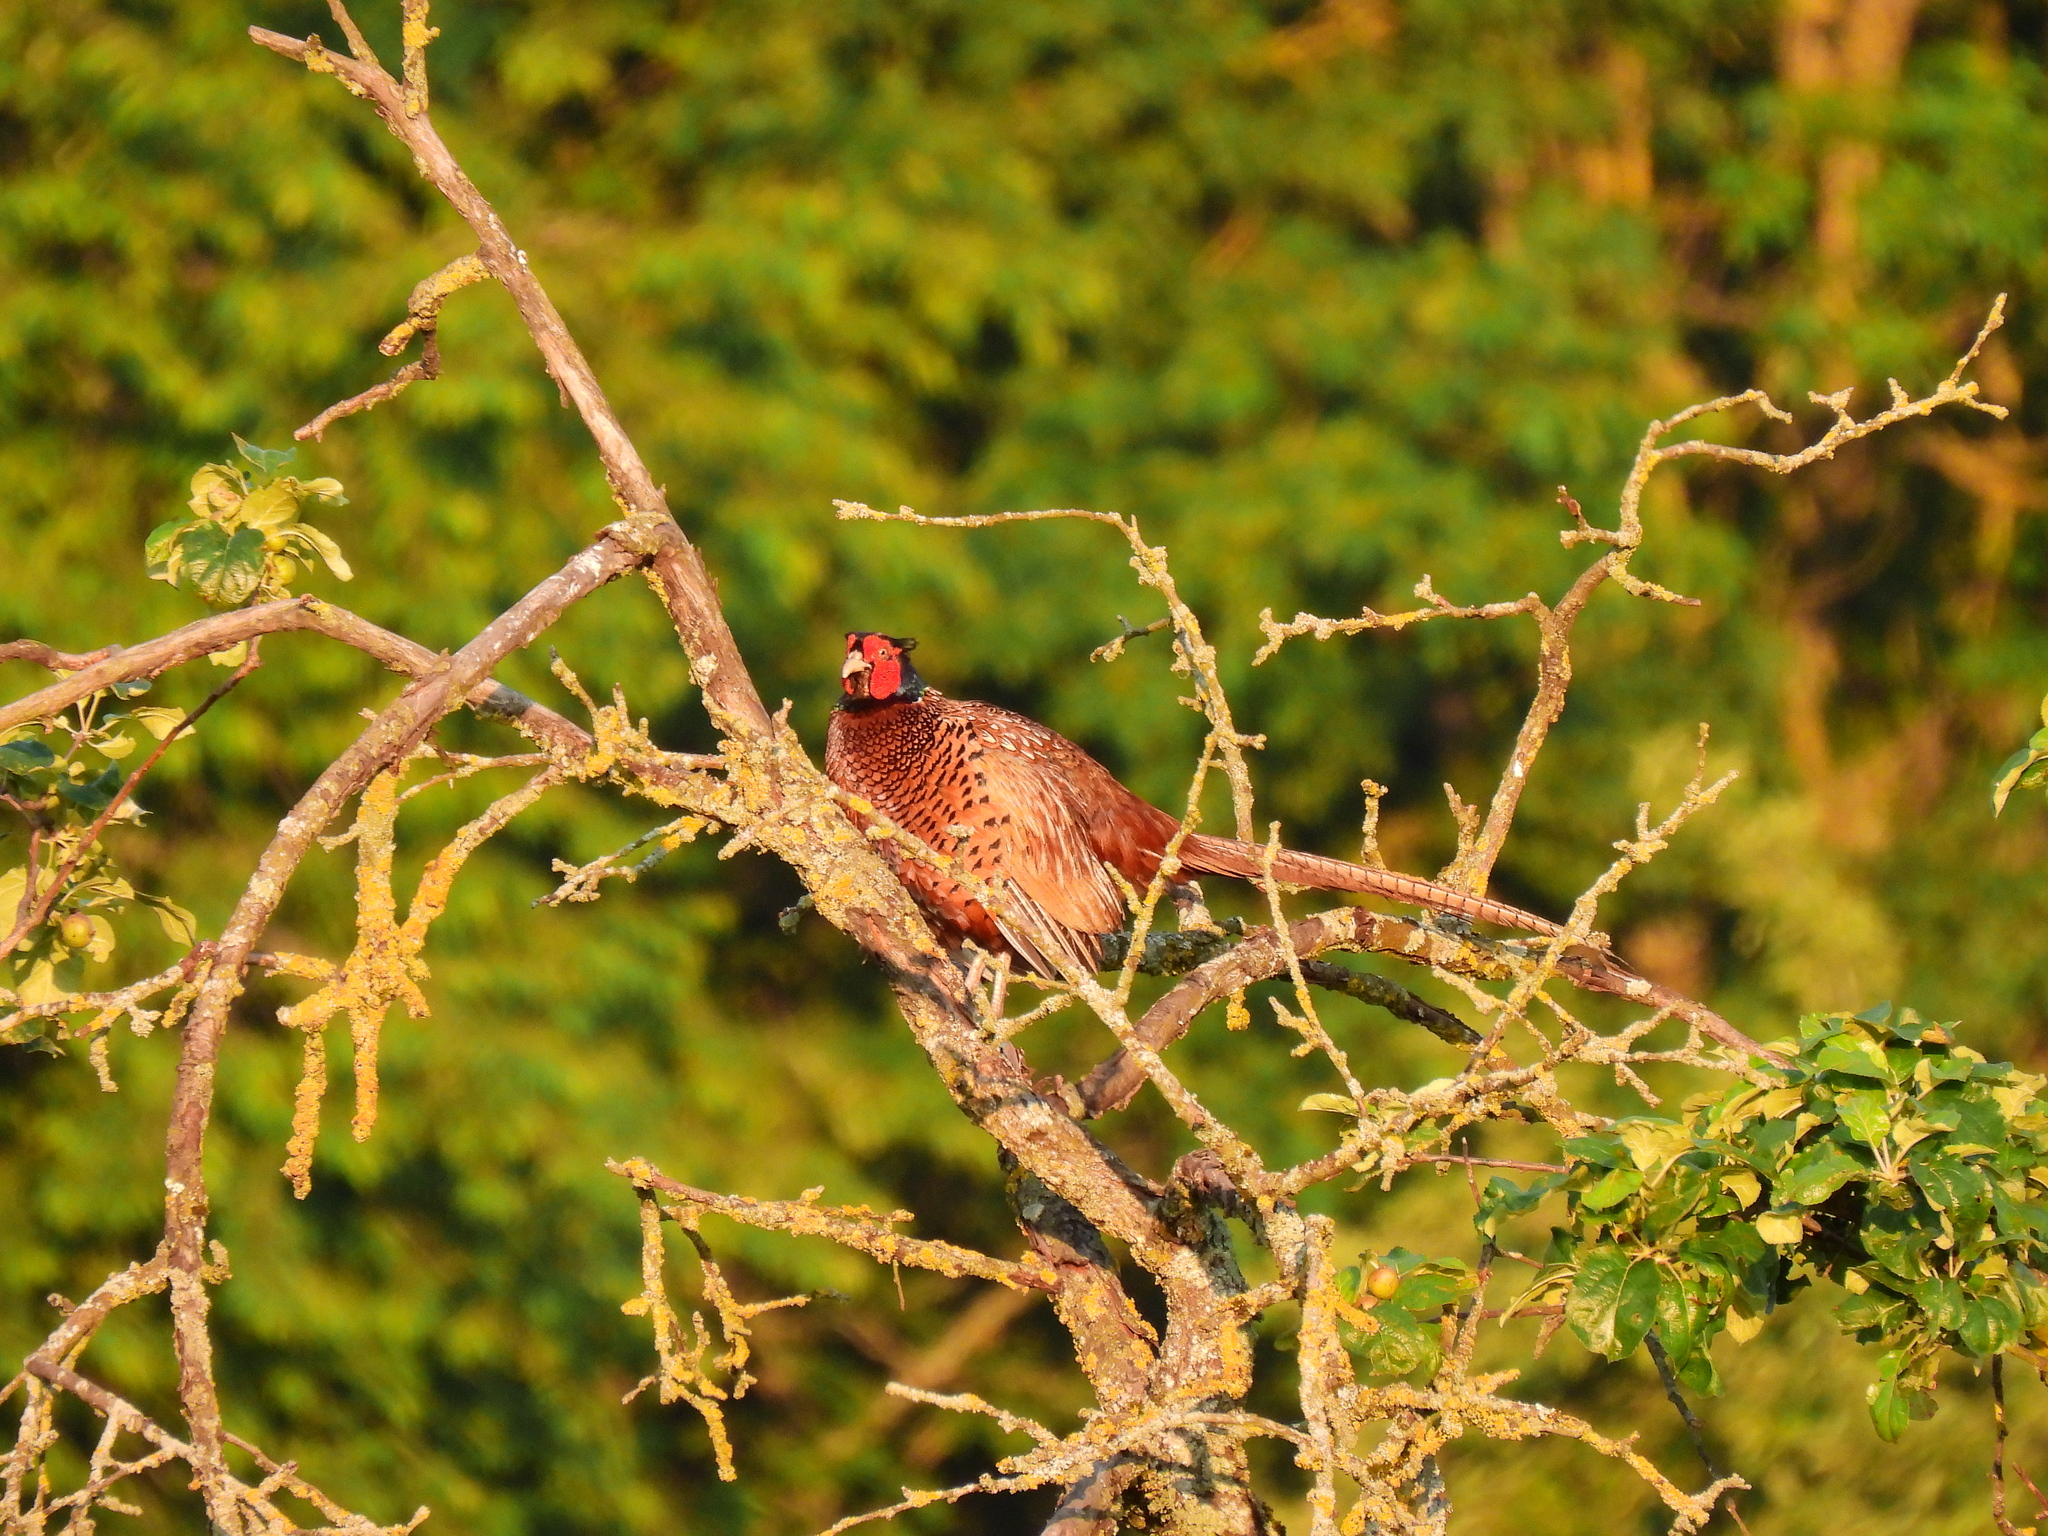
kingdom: Animalia
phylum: Chordata
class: Aves
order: Galliformes
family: Phasianidae
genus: Phasianus
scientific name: Phasianus colchicus
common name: Common pheasant
